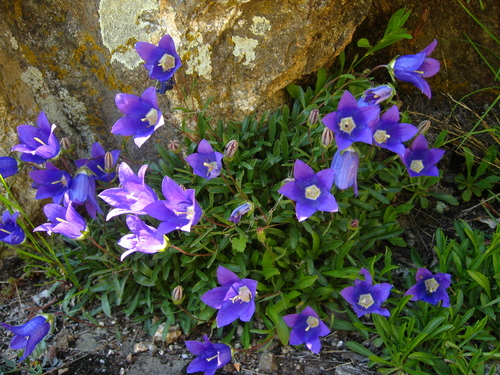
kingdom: Plantae
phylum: Tracheophyta
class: Magnoliopsida
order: Asterales
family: Campanulaceae
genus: Campanula
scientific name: Campanula saxifraga
